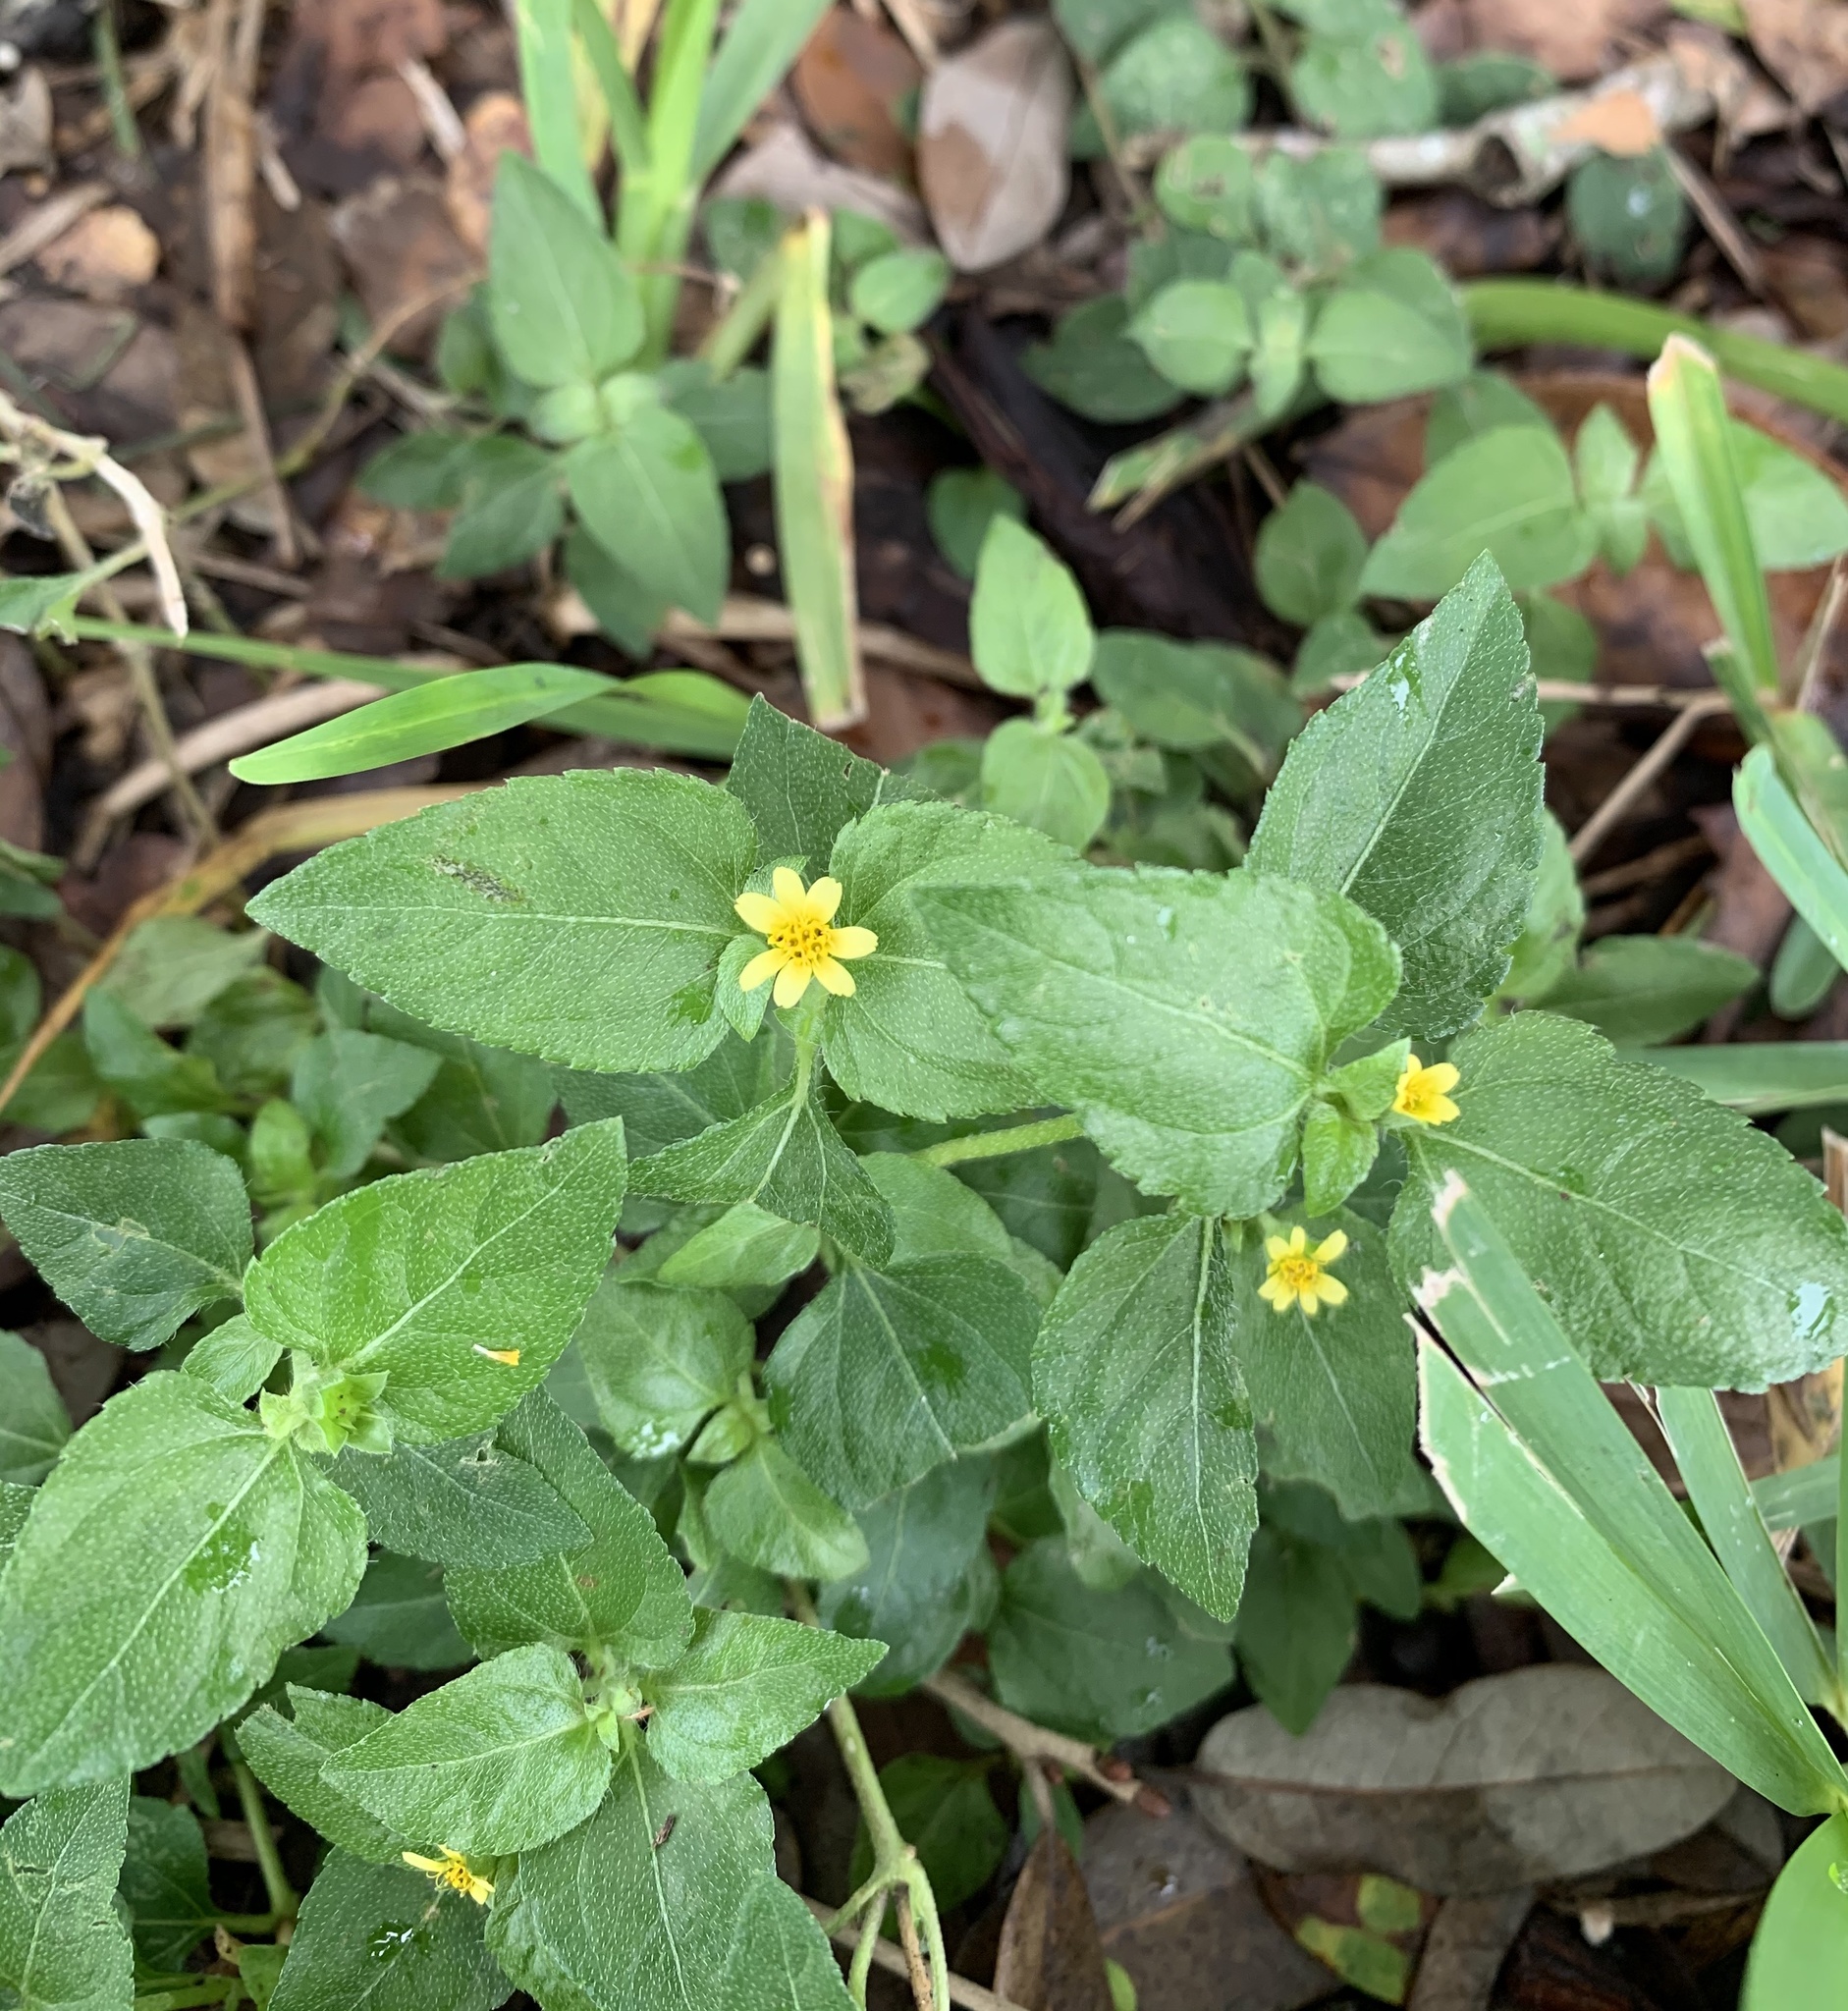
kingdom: Plantae
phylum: Tracheophyta
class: Magnoliopsida
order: Asterales
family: Asteraceae
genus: Calyptocarpus
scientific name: Calyptocarpus vialis
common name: Straggler daisy
